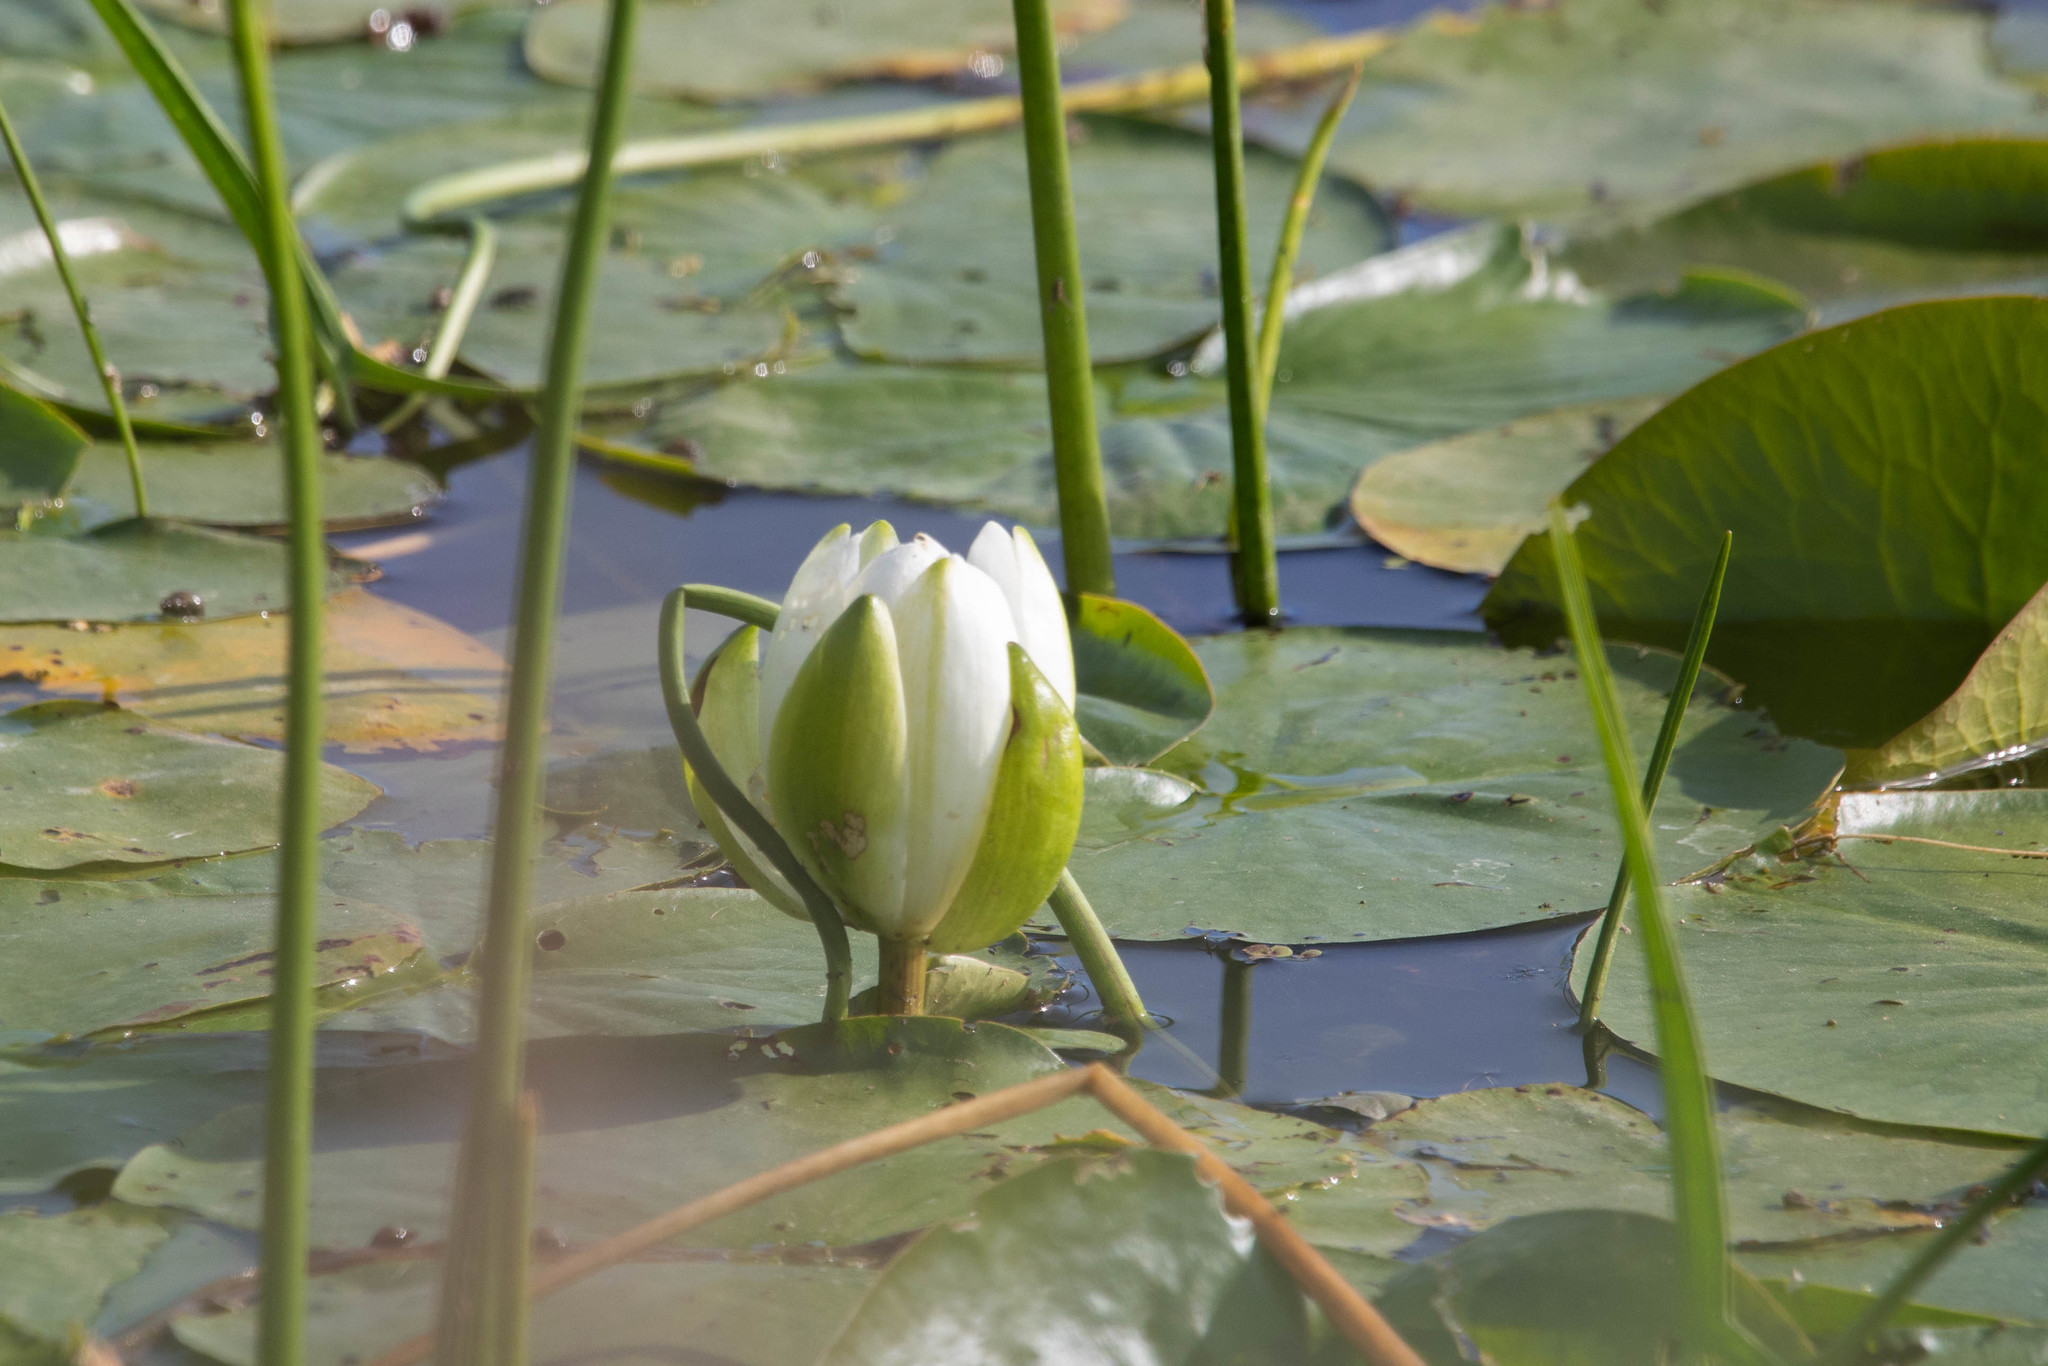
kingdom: Plantae
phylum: Tracheophyta
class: Magnoliopsida
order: Nymphaeales
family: Nymphaeaceae
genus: Nymphaea
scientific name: Nymphaea odorata
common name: Fragrant water-lily
